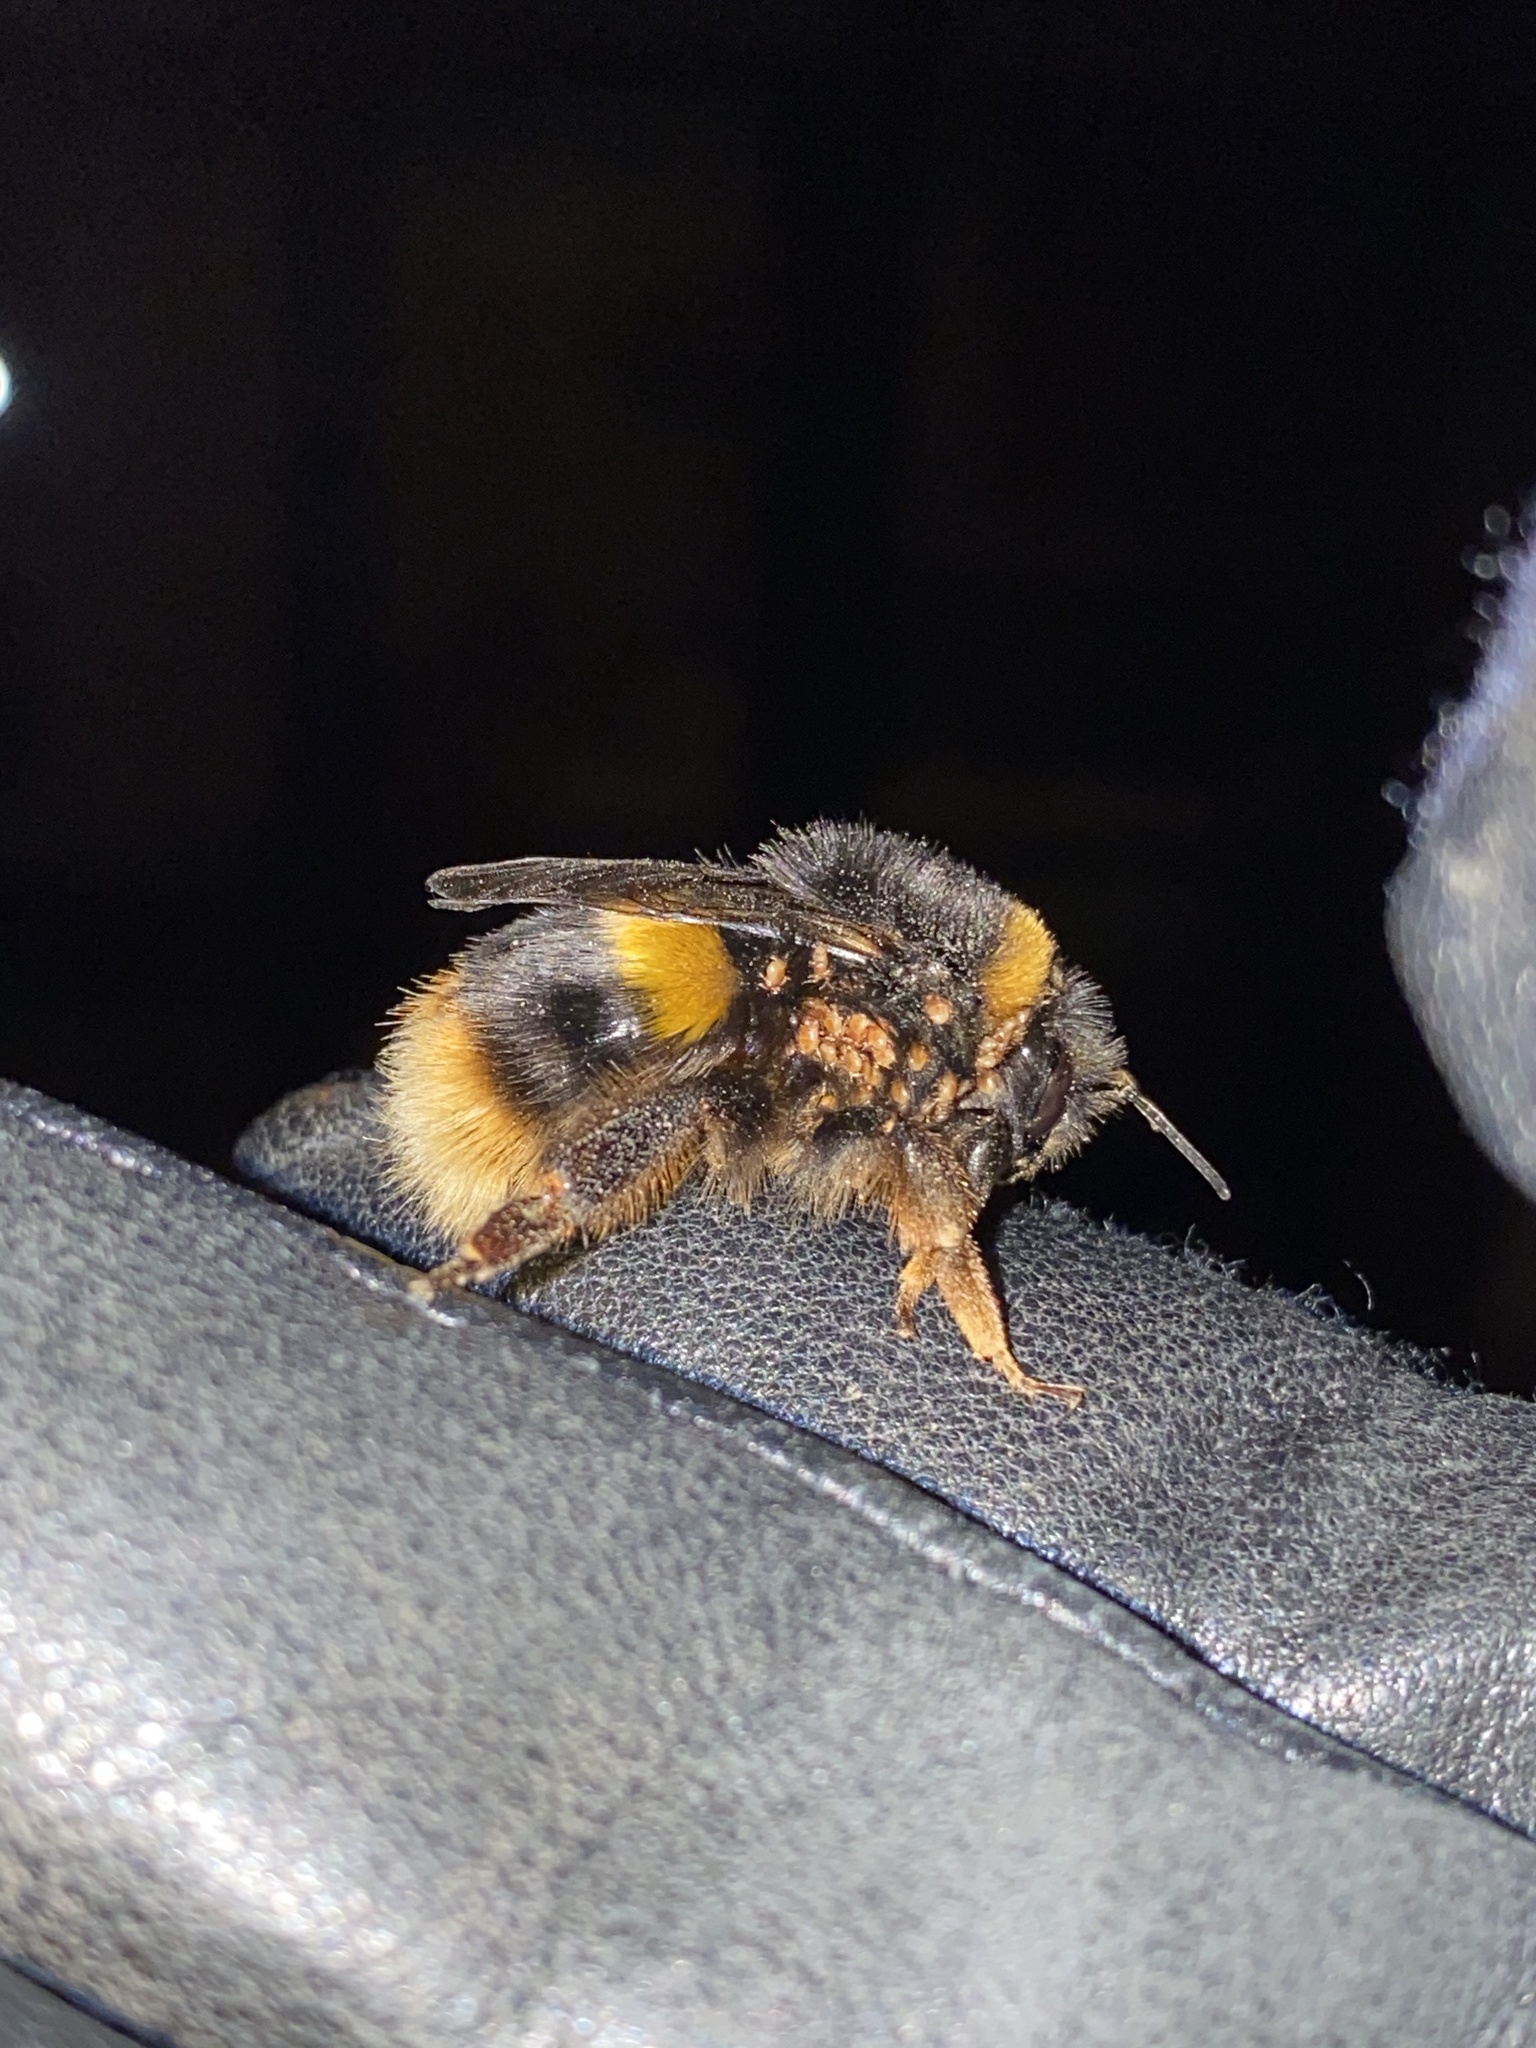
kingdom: Animalia
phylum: Arthropoda
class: Insecta
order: Hymenoptera
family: Apidae
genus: Bombus
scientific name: Bombus terrestris
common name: Buff-tailed bumblebee
